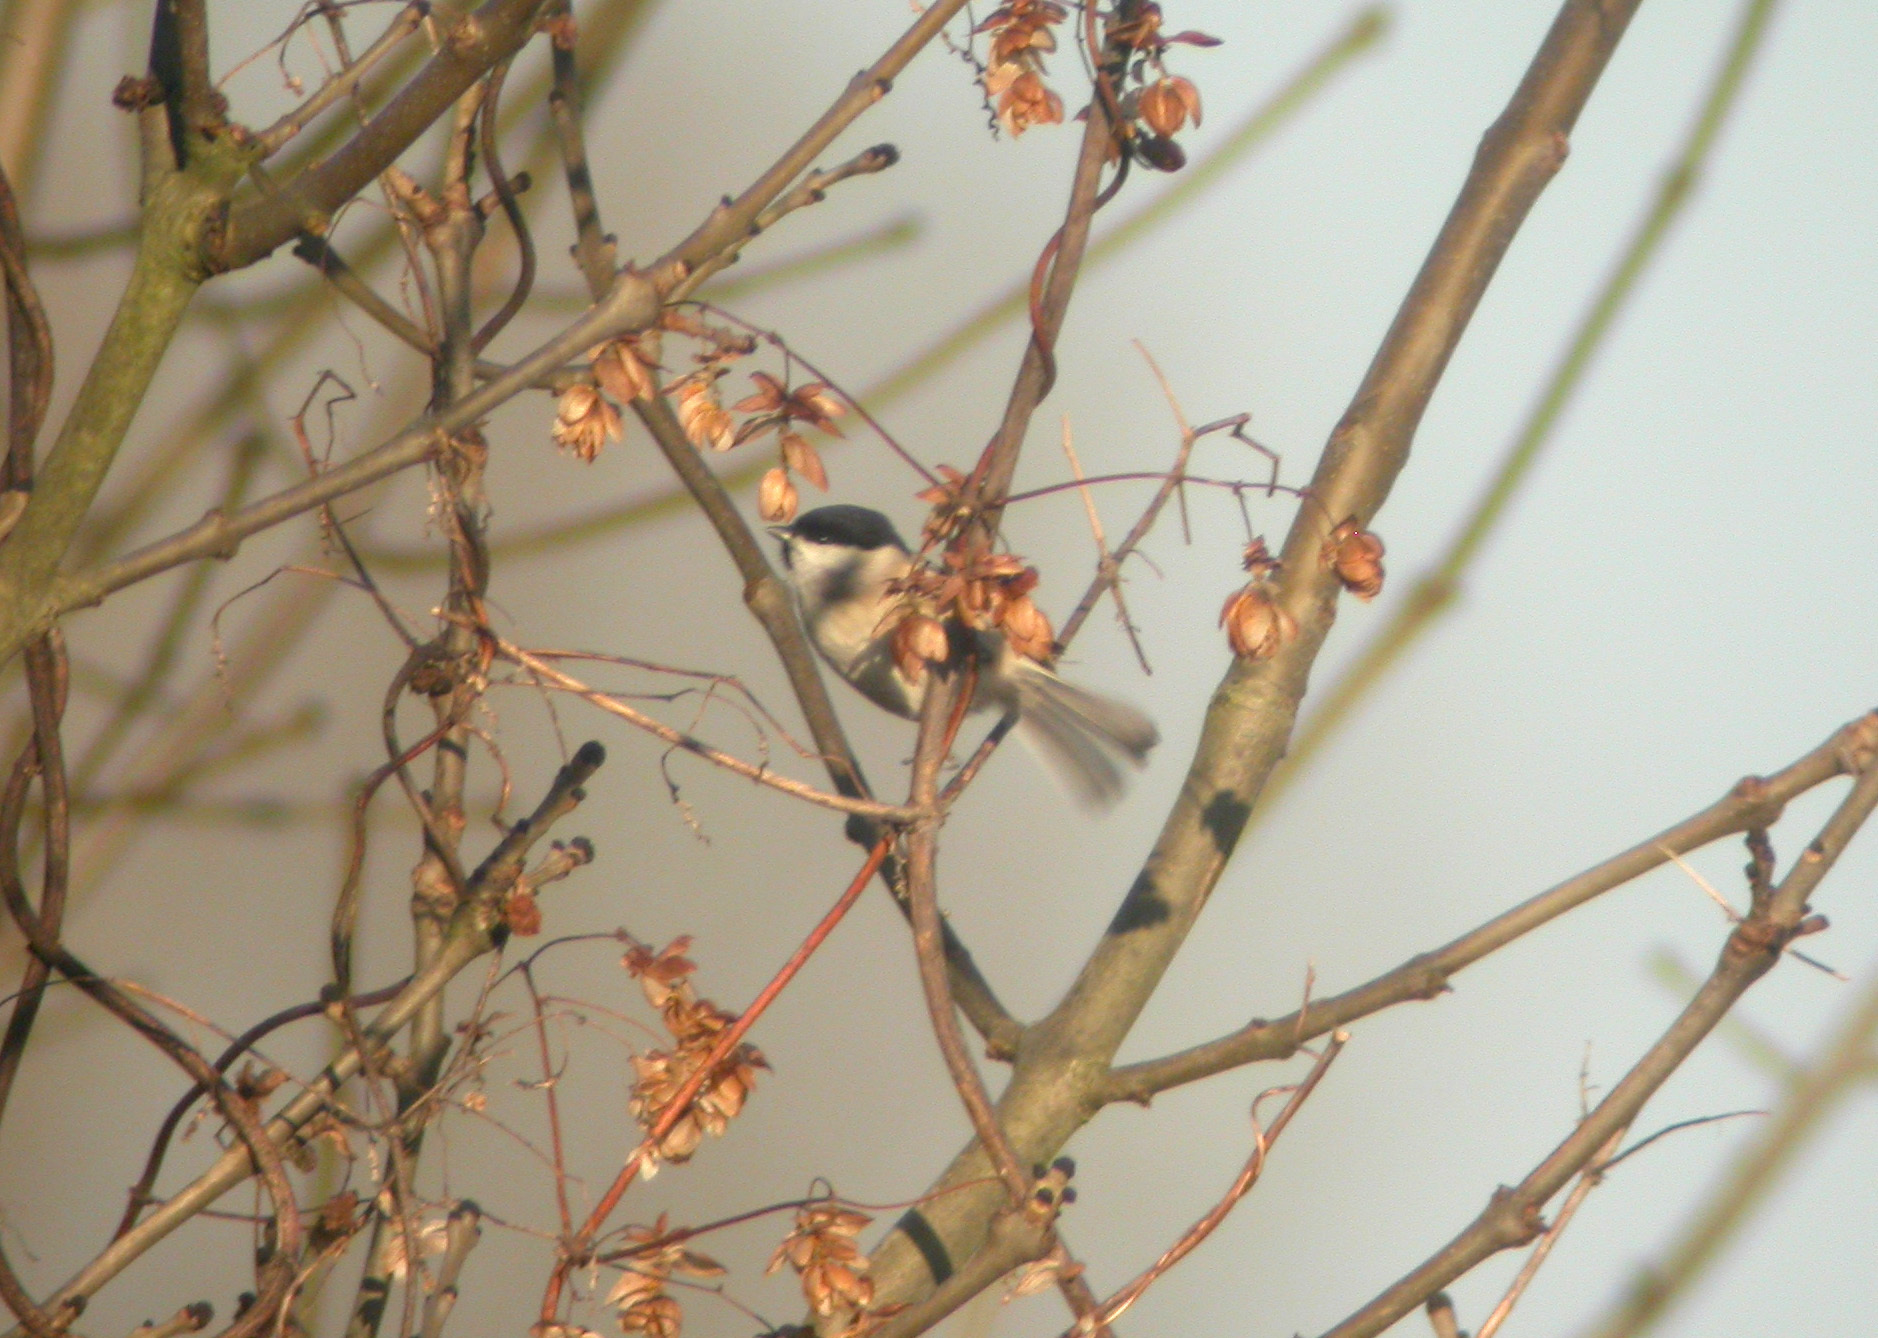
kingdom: Animalia
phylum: Chordata
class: Aves
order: Passeriformes
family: Paridae
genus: Poecile
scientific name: Poecile palustris
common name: Marsh tit
